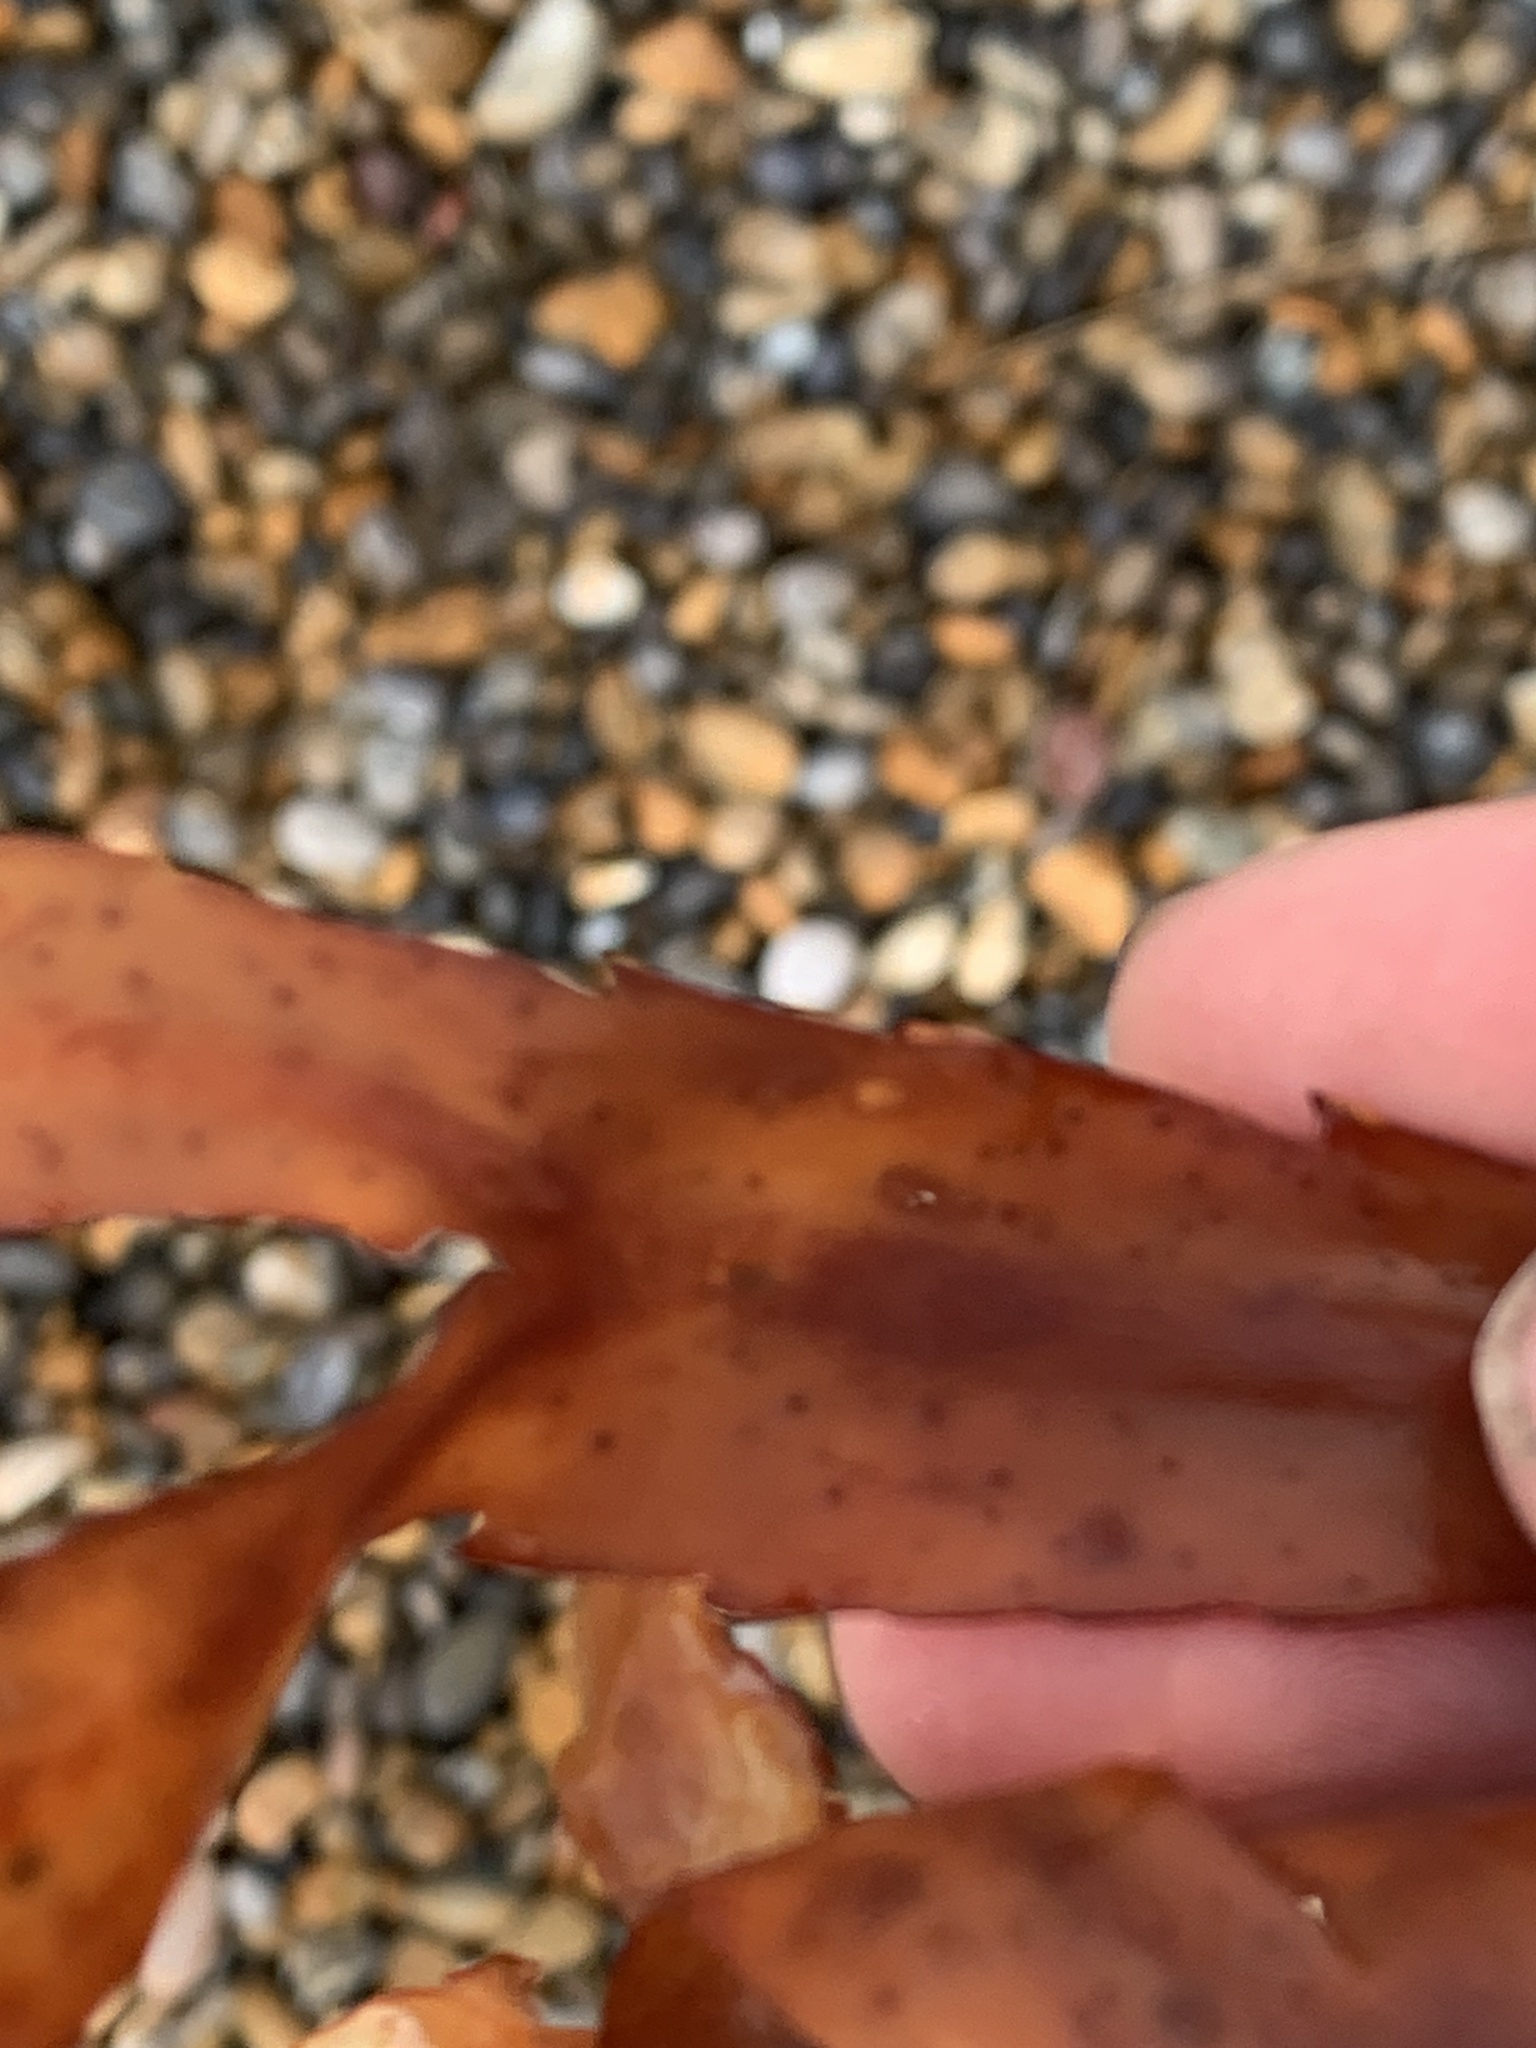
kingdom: Chromista
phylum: Ochrophyta
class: Phaeophyceae
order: Fucales
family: Fucaceae
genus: Fucus
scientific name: Fucus serratus
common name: Toothed wrack
